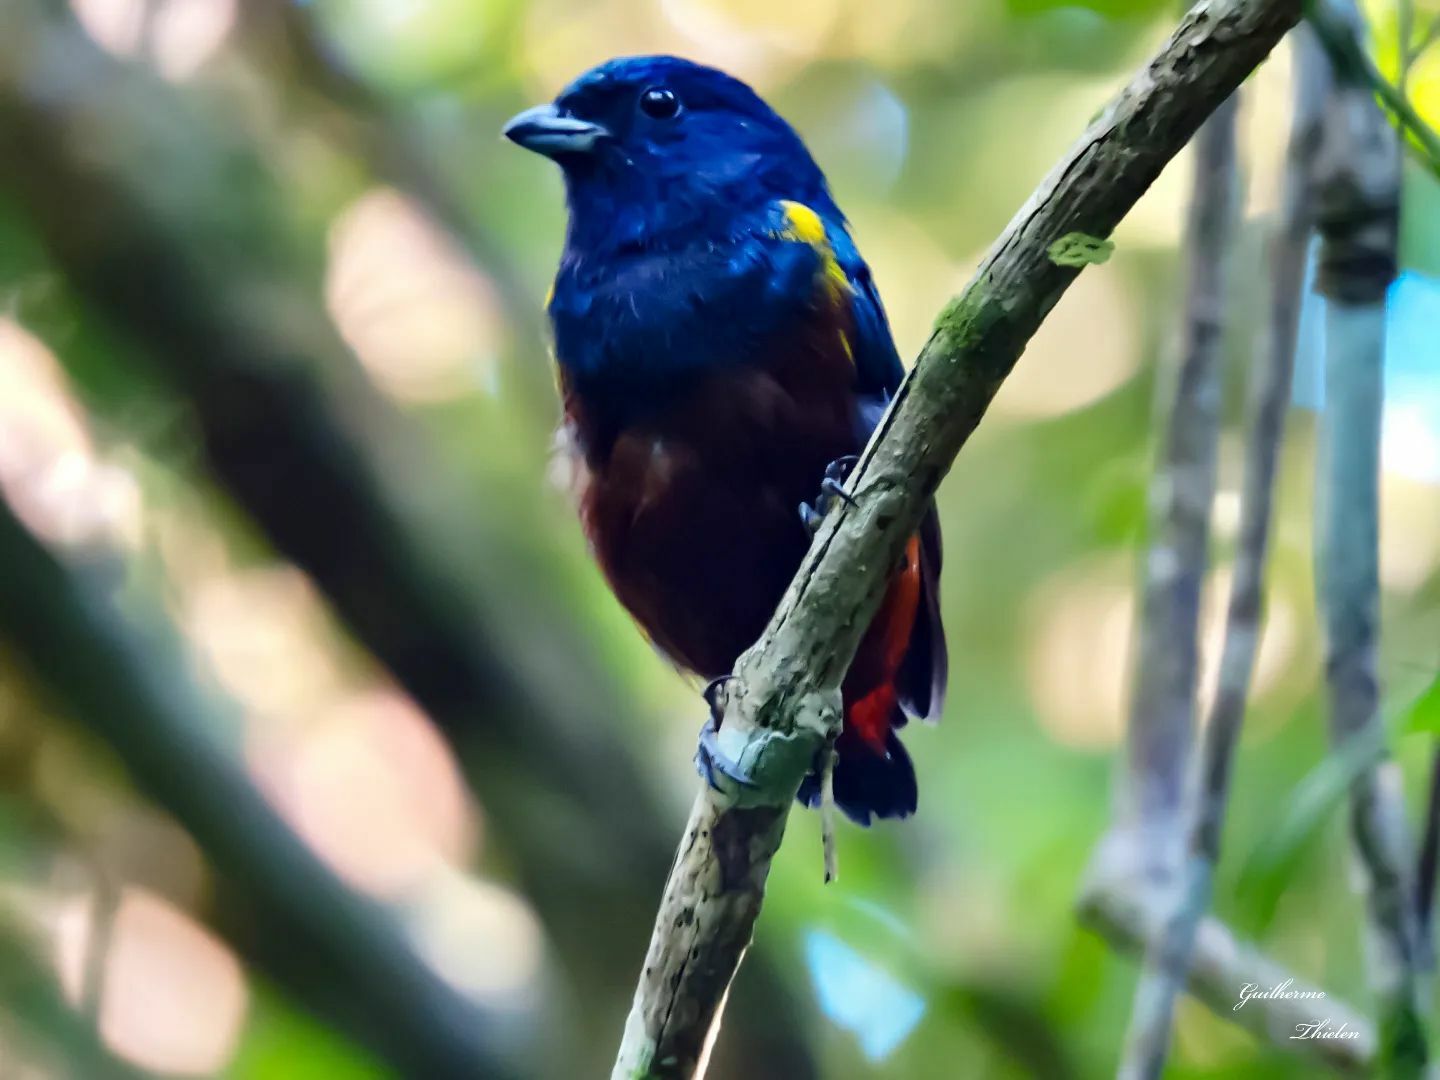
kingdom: Animalia
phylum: Chordata
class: Aves
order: Passeriformes
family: Fringillidae
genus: Euphonia
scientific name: Euphonia pectoralis
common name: Chestnut-bellied euphonia
